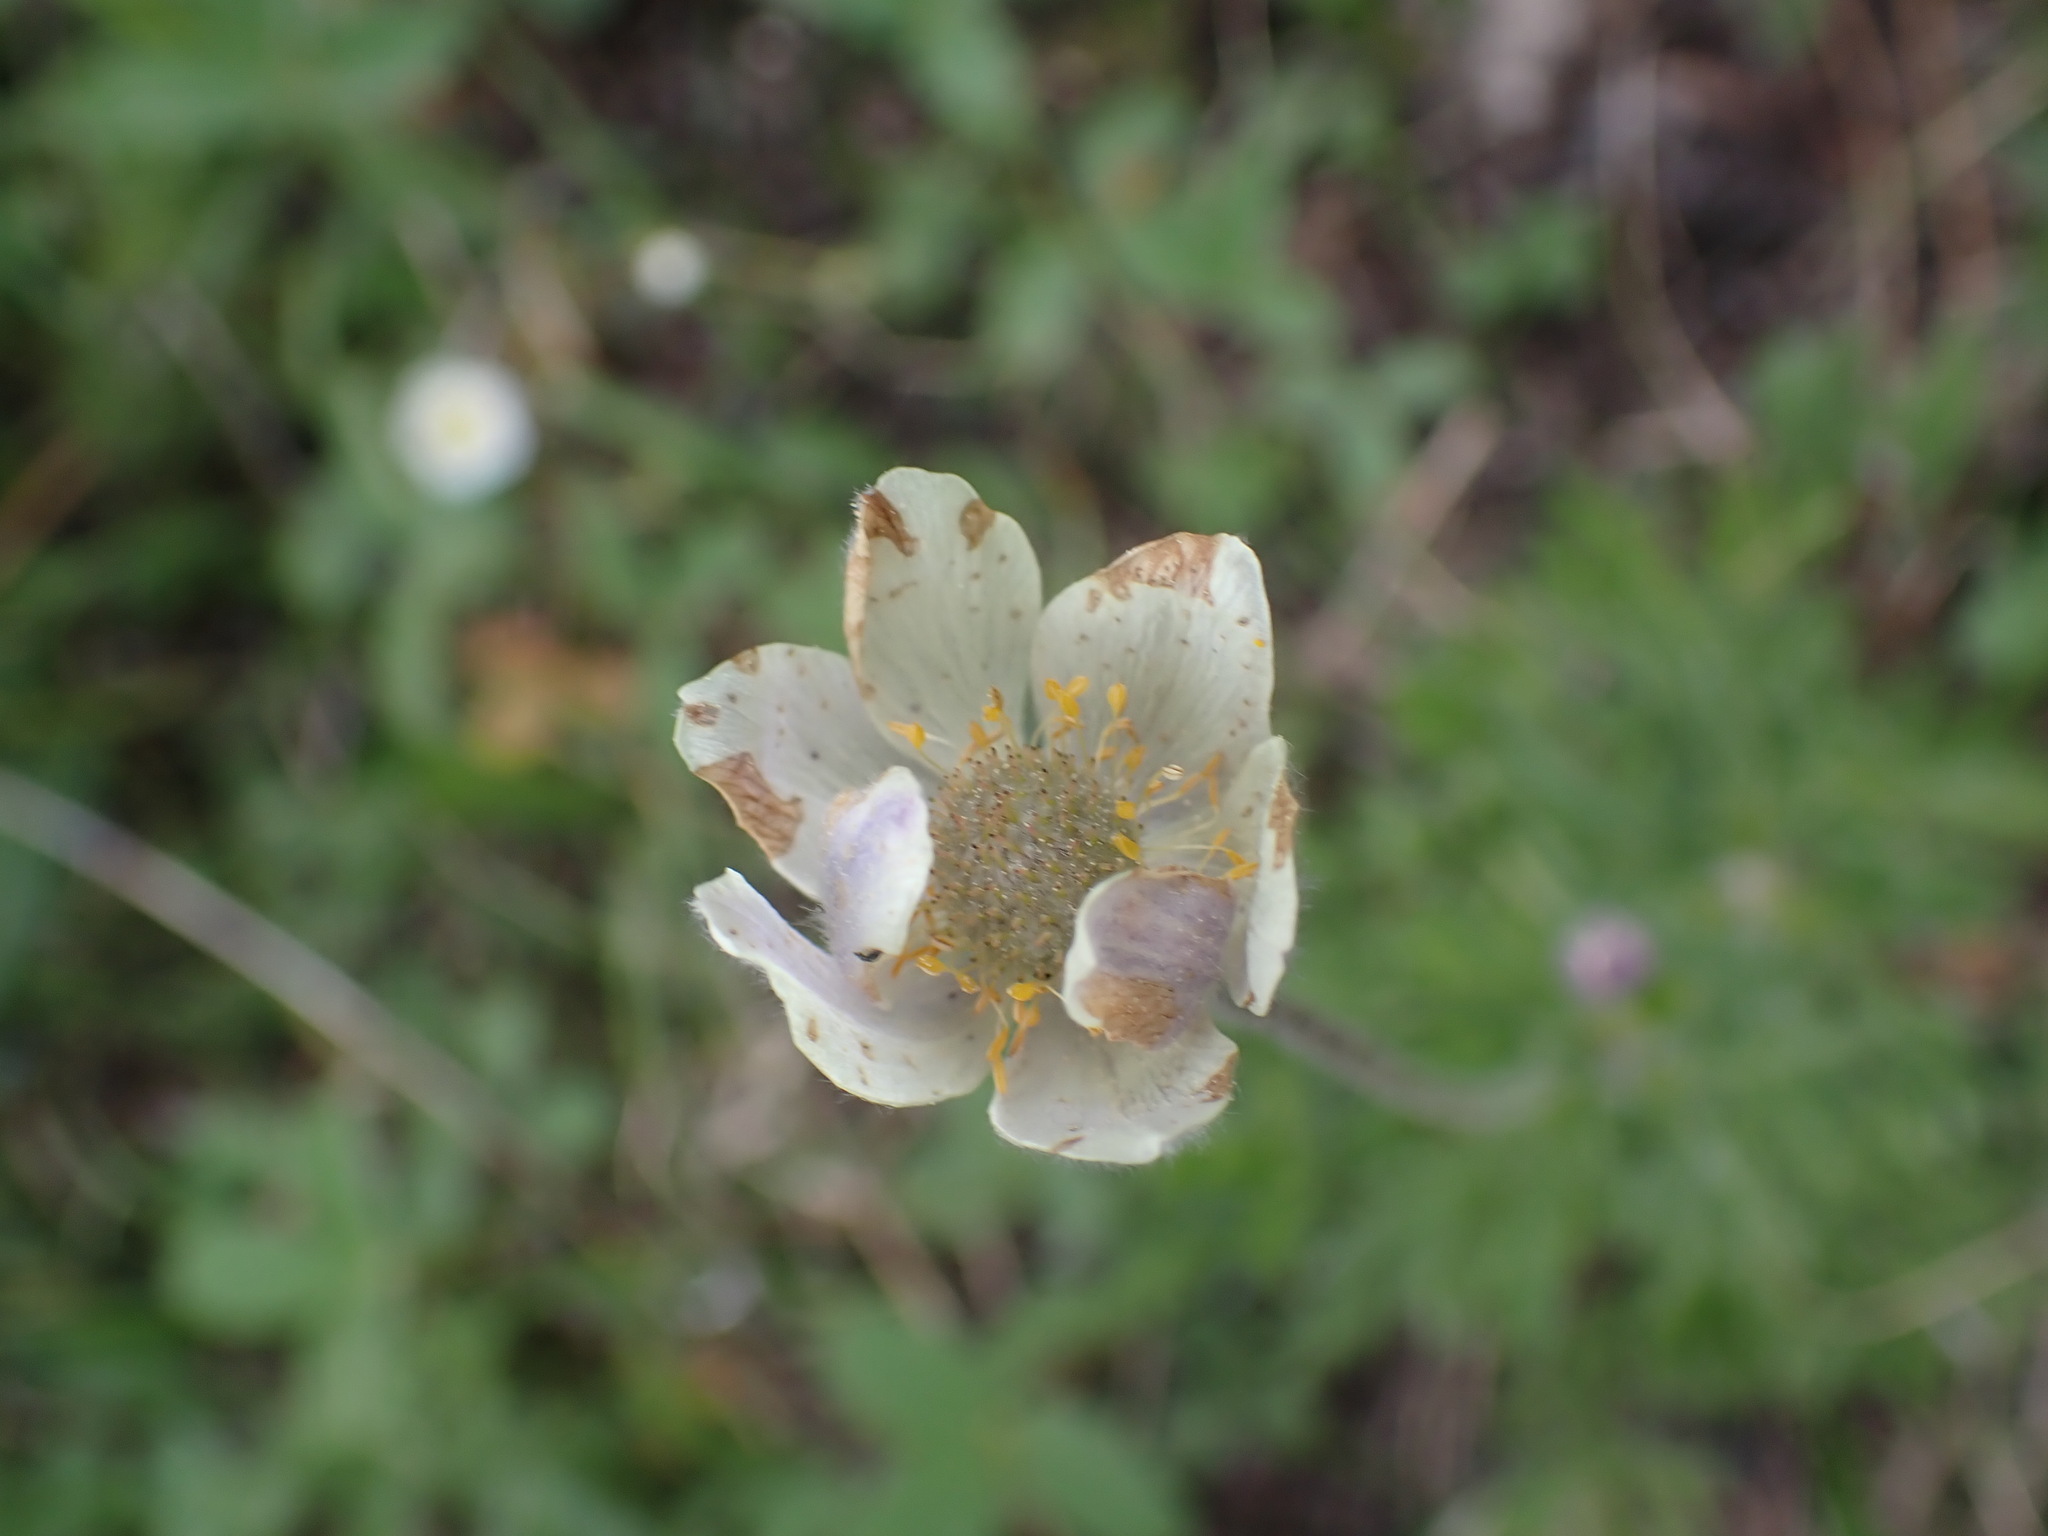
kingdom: Plantae
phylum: Tracheophyta
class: Magnoliopsida
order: Ranunculales
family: Ranunculaceae
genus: Anemone
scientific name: Anemone multifida
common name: Bird's-foot anemone
